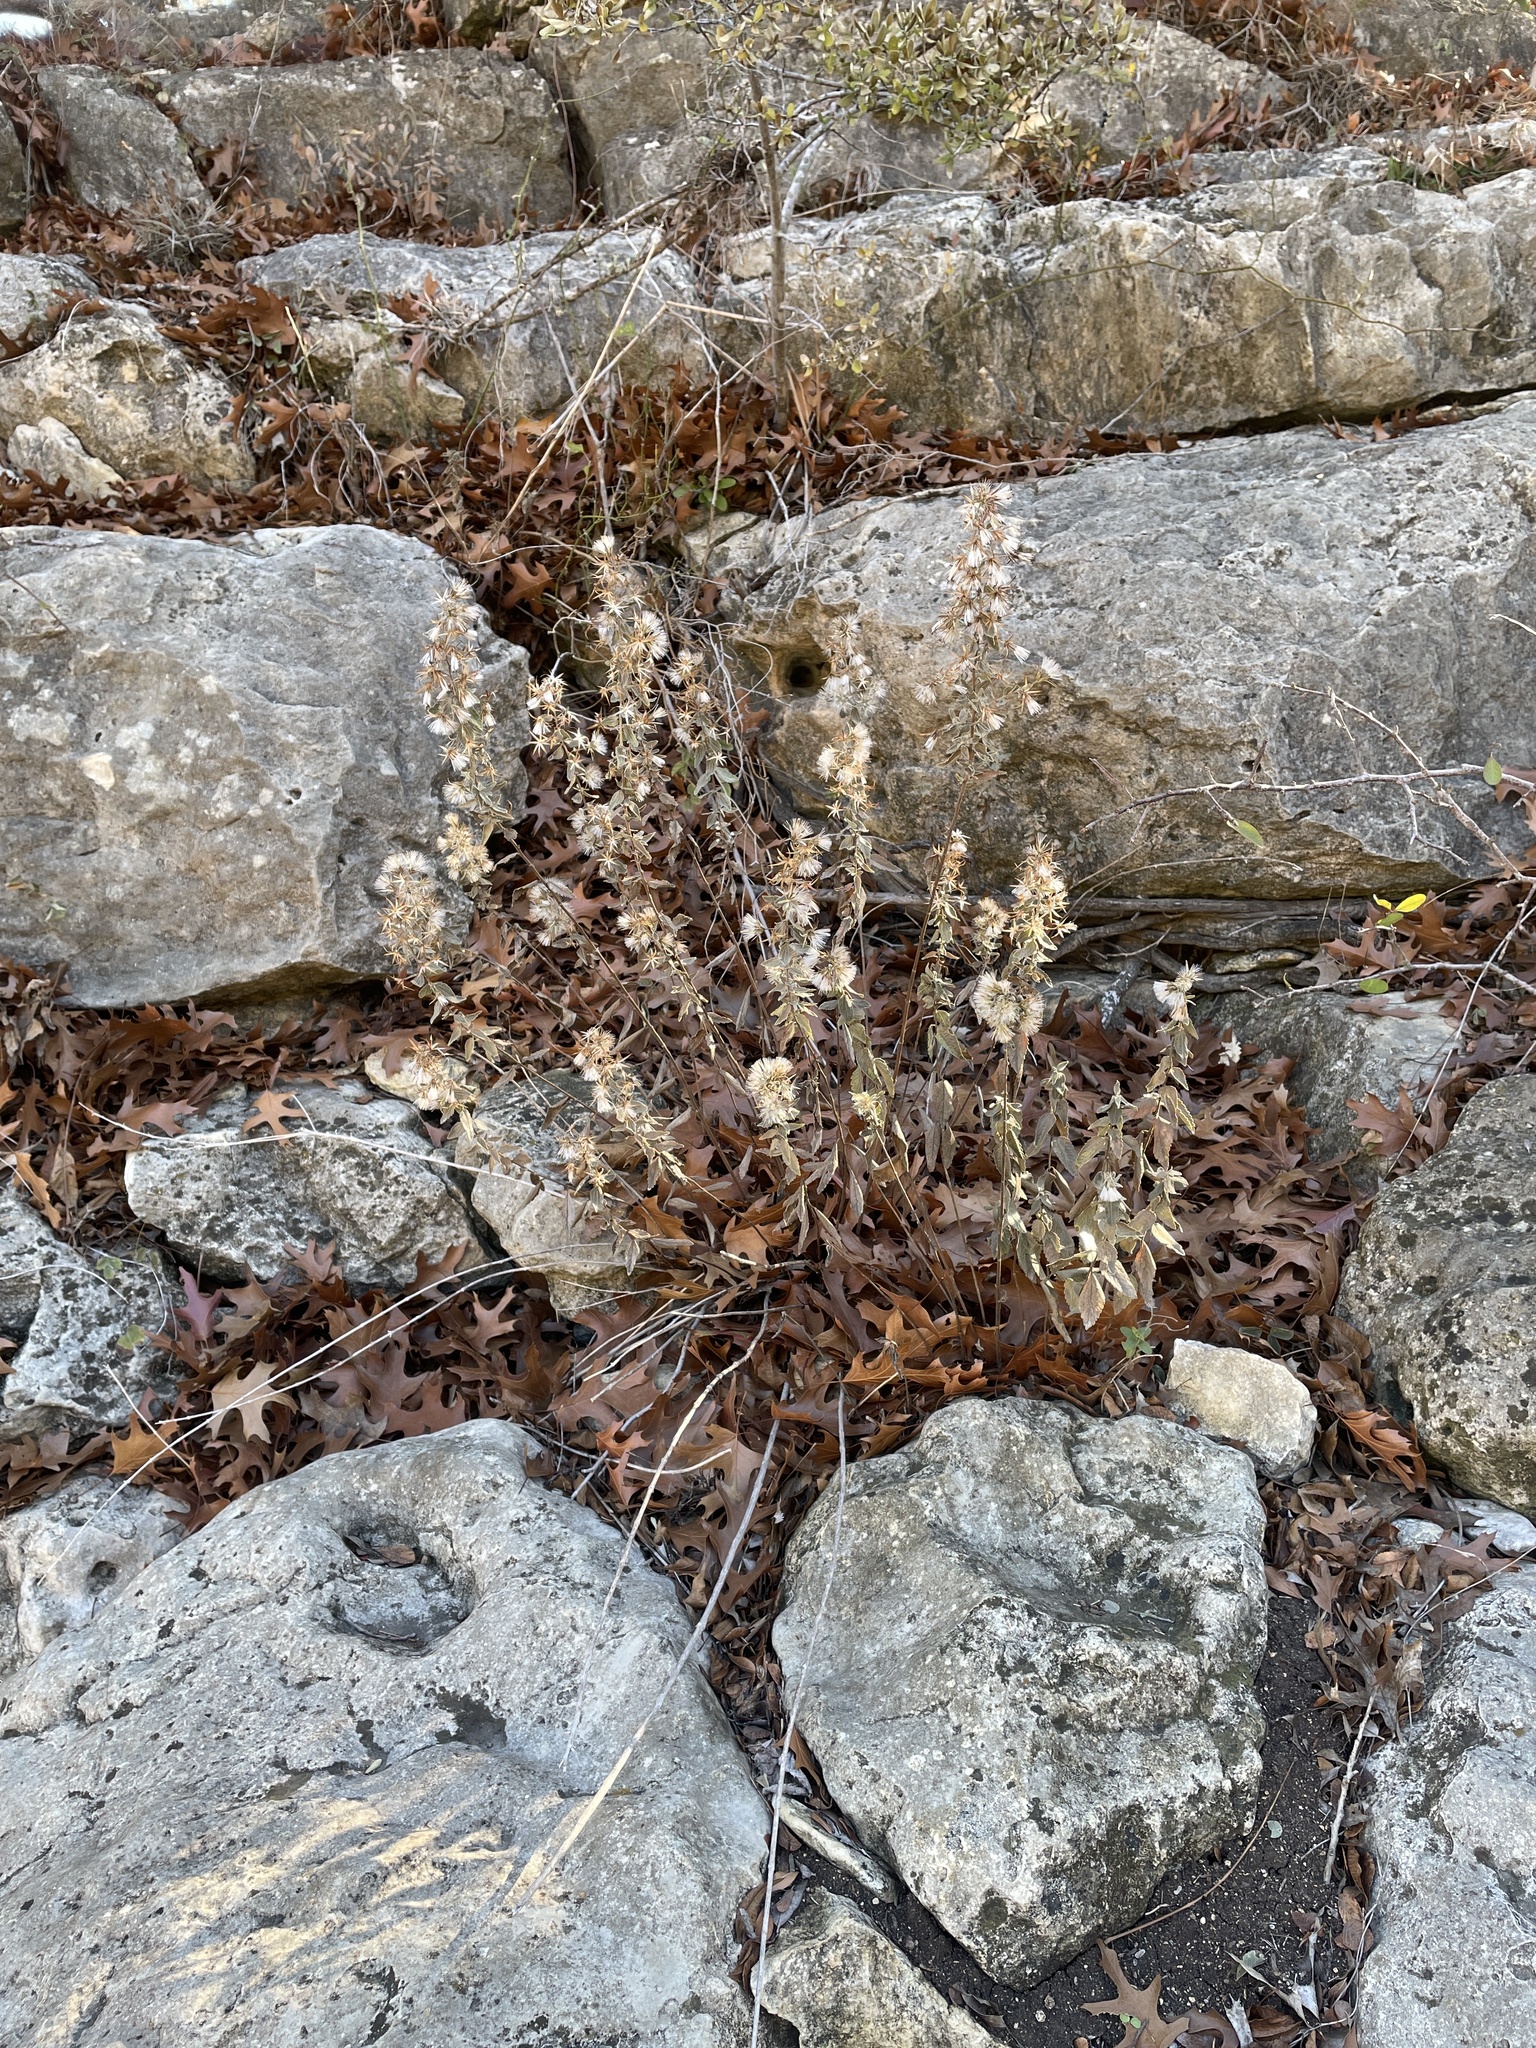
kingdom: Plantae
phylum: Tracheophyta
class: Magnoliopsida
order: Asterales
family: Asteraceae
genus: Brickellia
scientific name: Brickellia cylindracea
